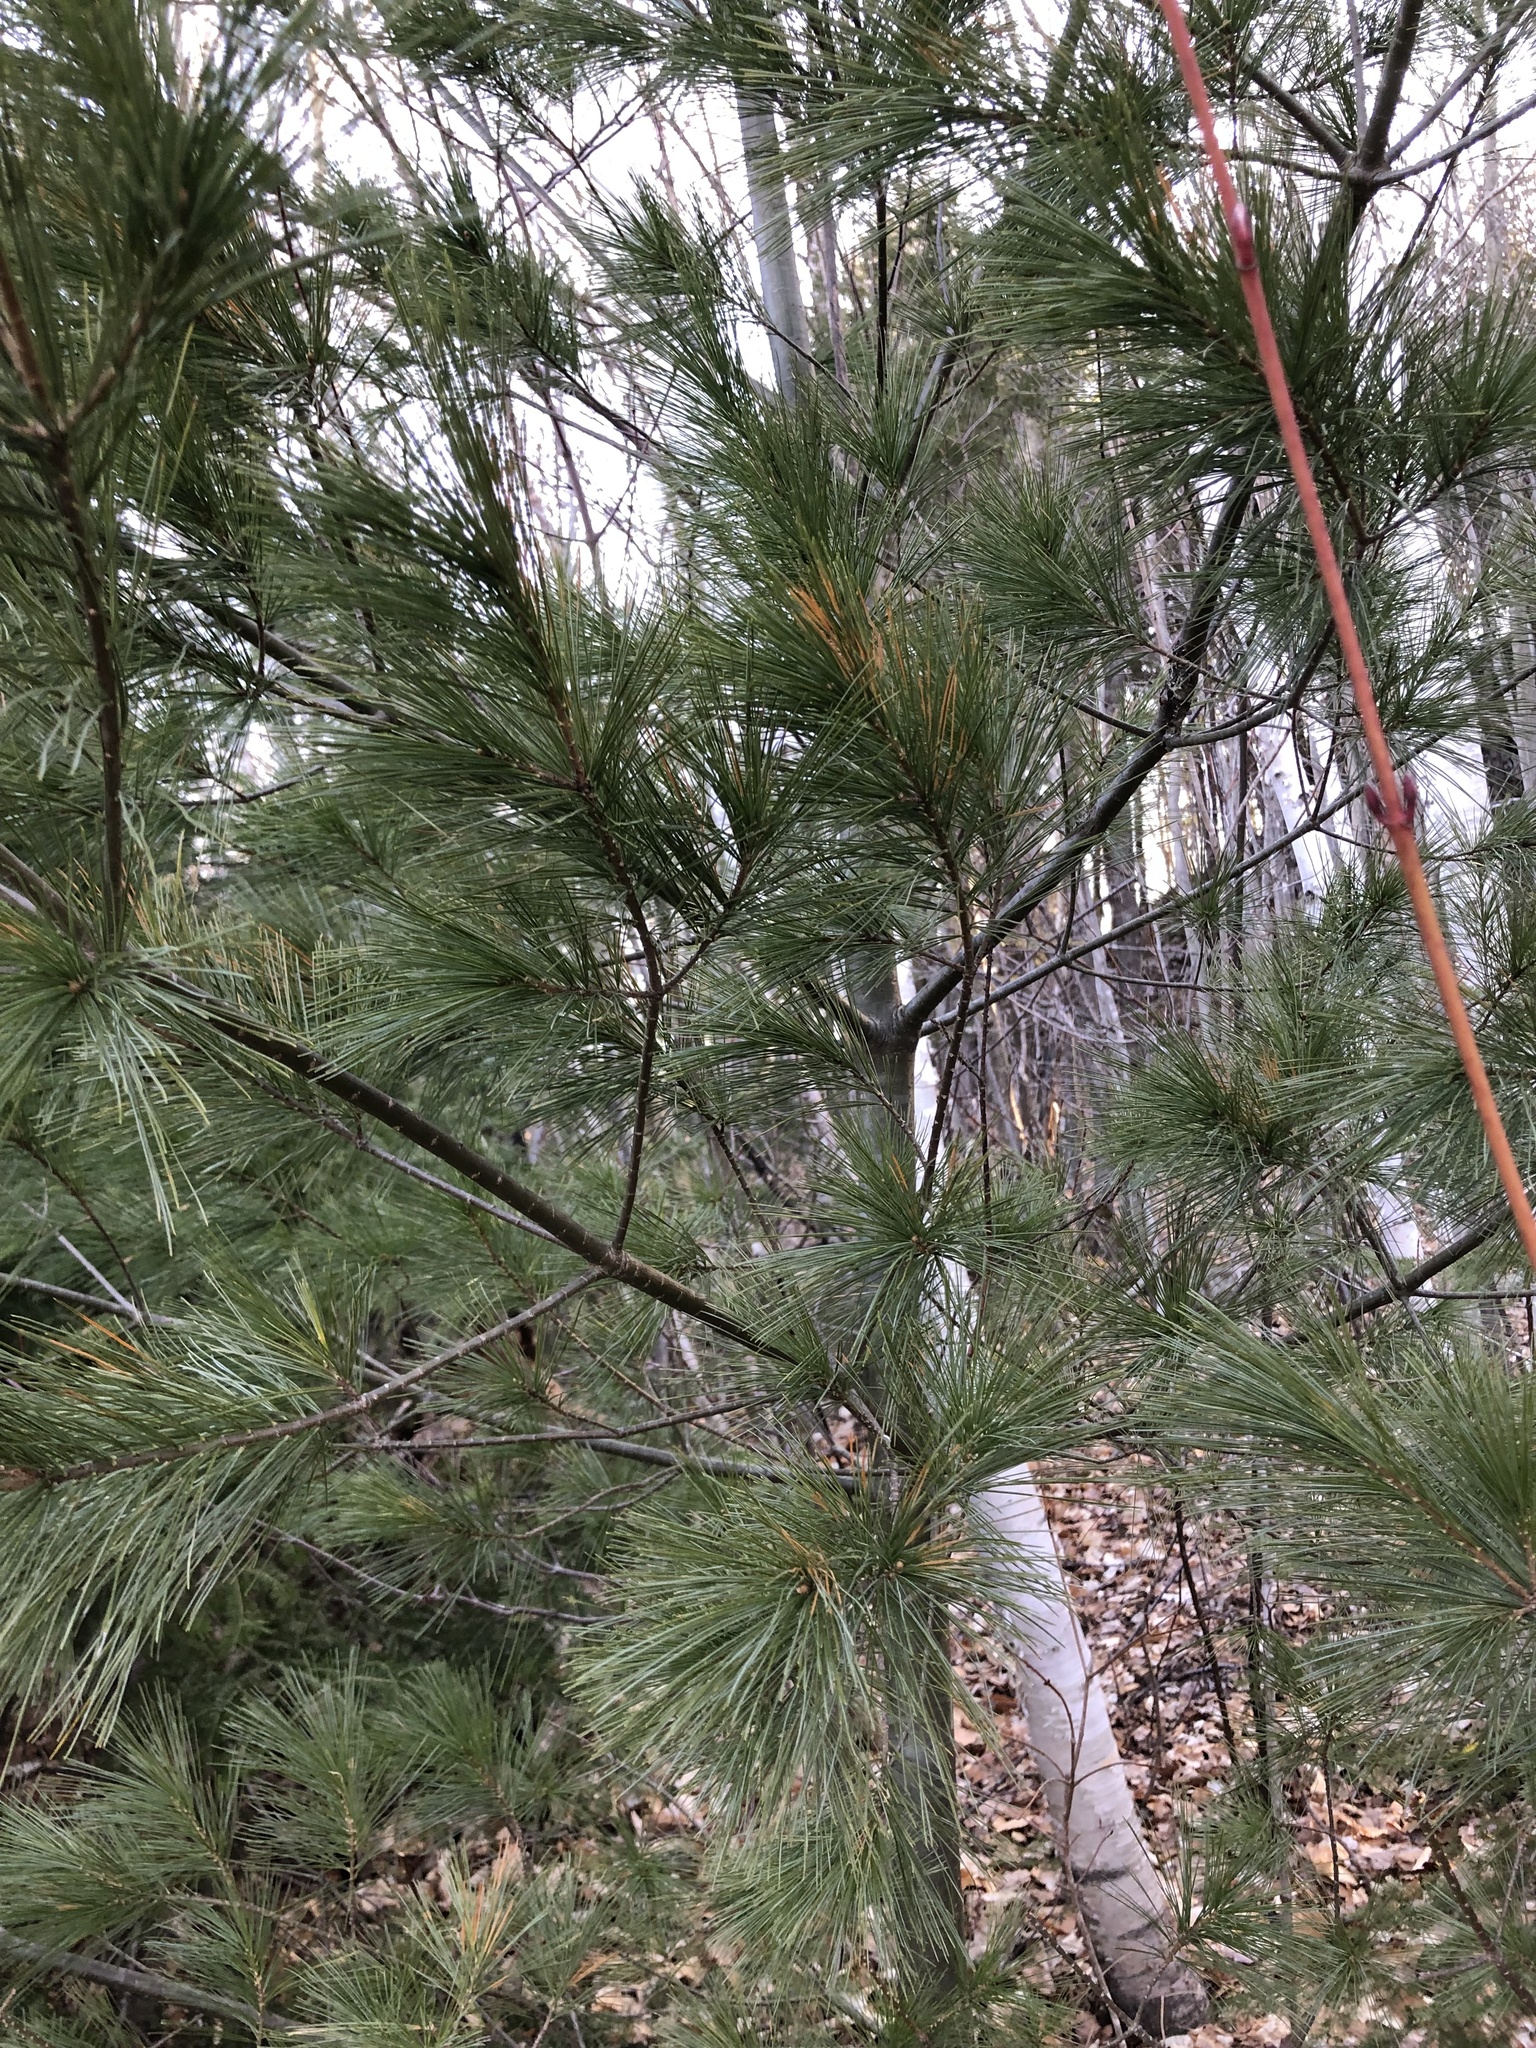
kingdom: Plantae
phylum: Tracheophyta
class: Pinopsida
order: Pinales
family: Pinaceae
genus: Pinus
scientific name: Pinus strobus
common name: Weymouth pine
